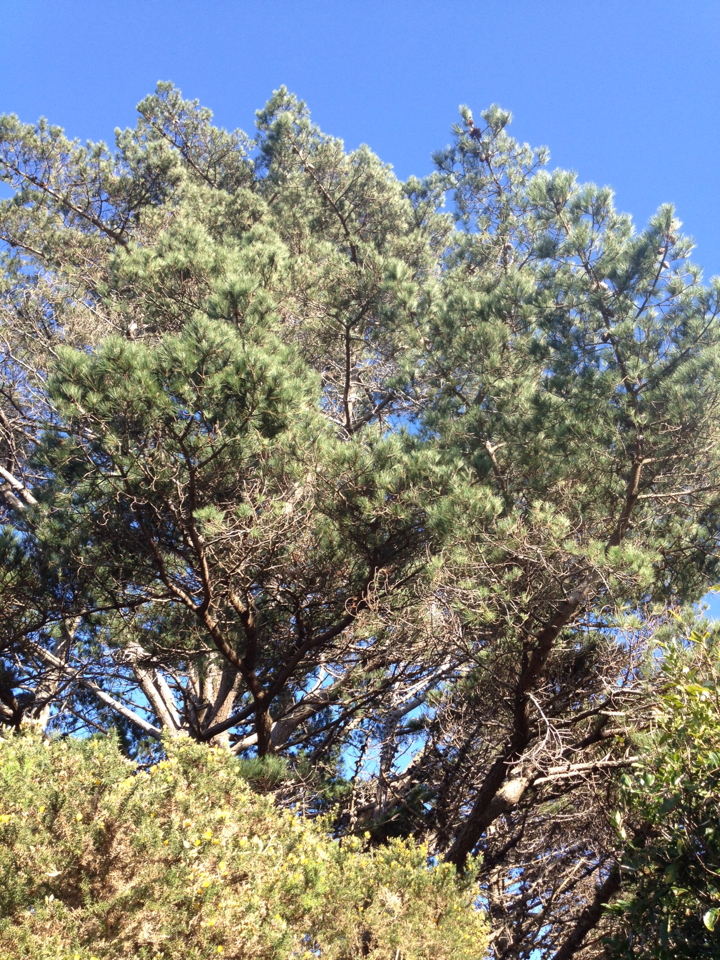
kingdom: Plantae
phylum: Tracheophyta
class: Pinopsida
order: Pinales
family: Pinaceae
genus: Pinus
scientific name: Pinus radiata
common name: Monterey pine
